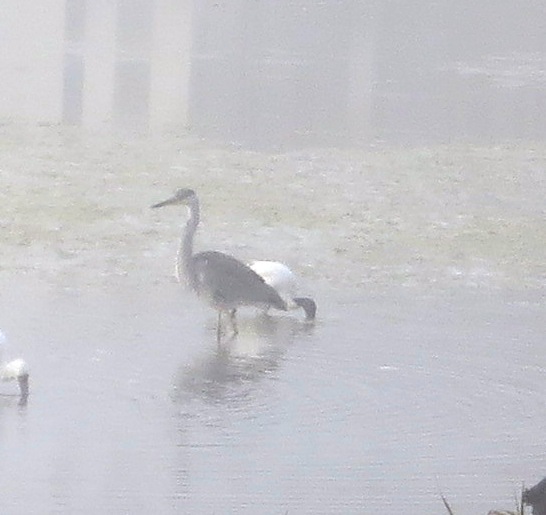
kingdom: Animalia
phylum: Chordata
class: Aves
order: Pelecaniformes
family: Ardeidae
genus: Ardea
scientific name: Ardea cinerea
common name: Grey heron
